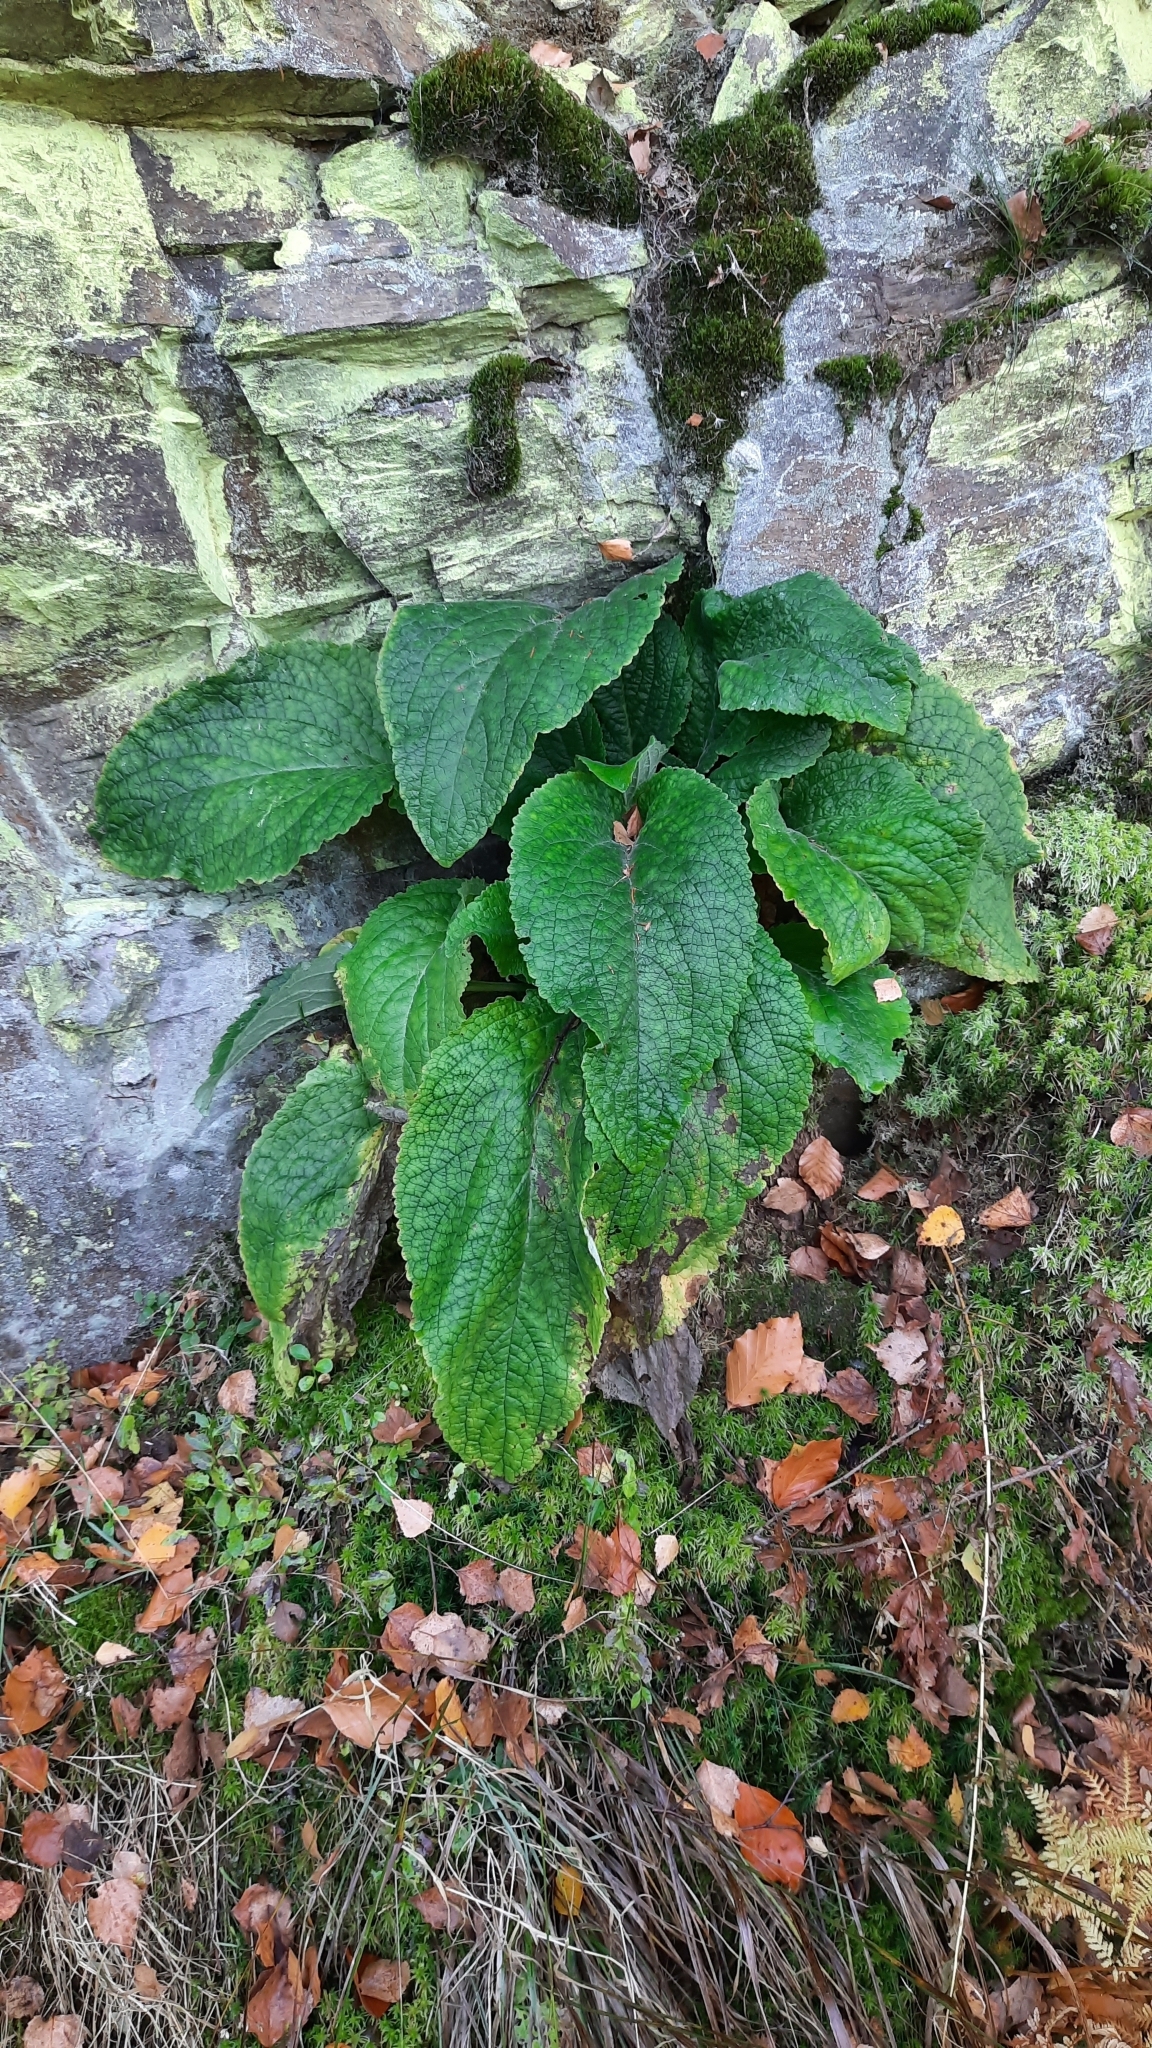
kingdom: Plantae
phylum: Tracheophyta
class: Magnoliopsida
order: Lamiales
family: Plantaginaceae
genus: Digitalis
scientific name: Digitalis purpurea
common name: Foxglove
